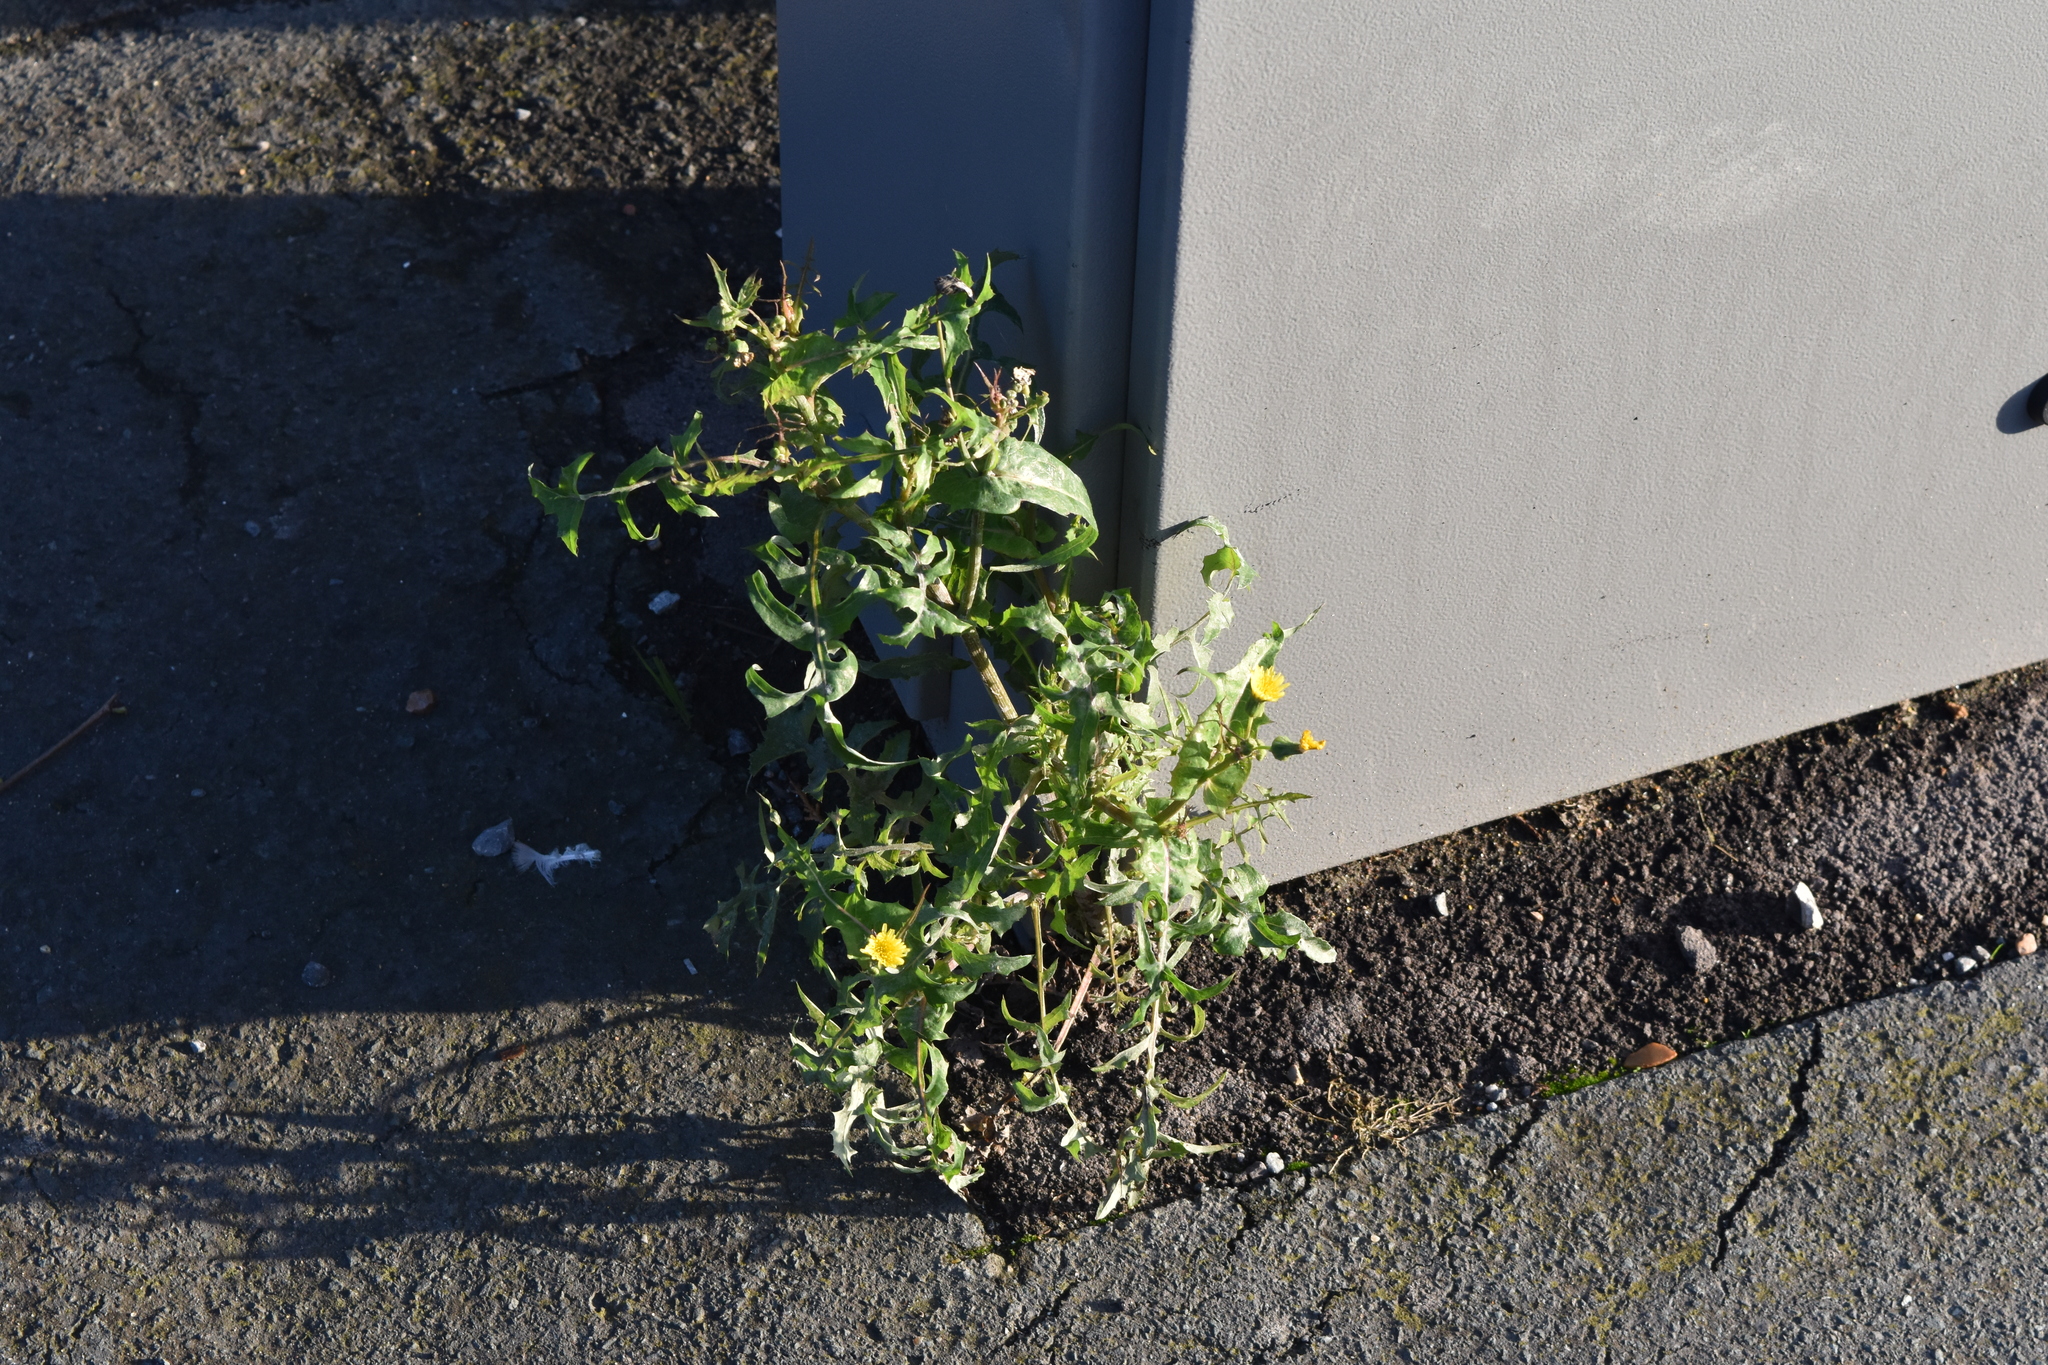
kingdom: Plantae
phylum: Tracheophyta
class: Magnoliopsida
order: Asterales
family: Asteraceae
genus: Sonchus
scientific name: Sonchus oleraceus
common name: Common sowthistle
